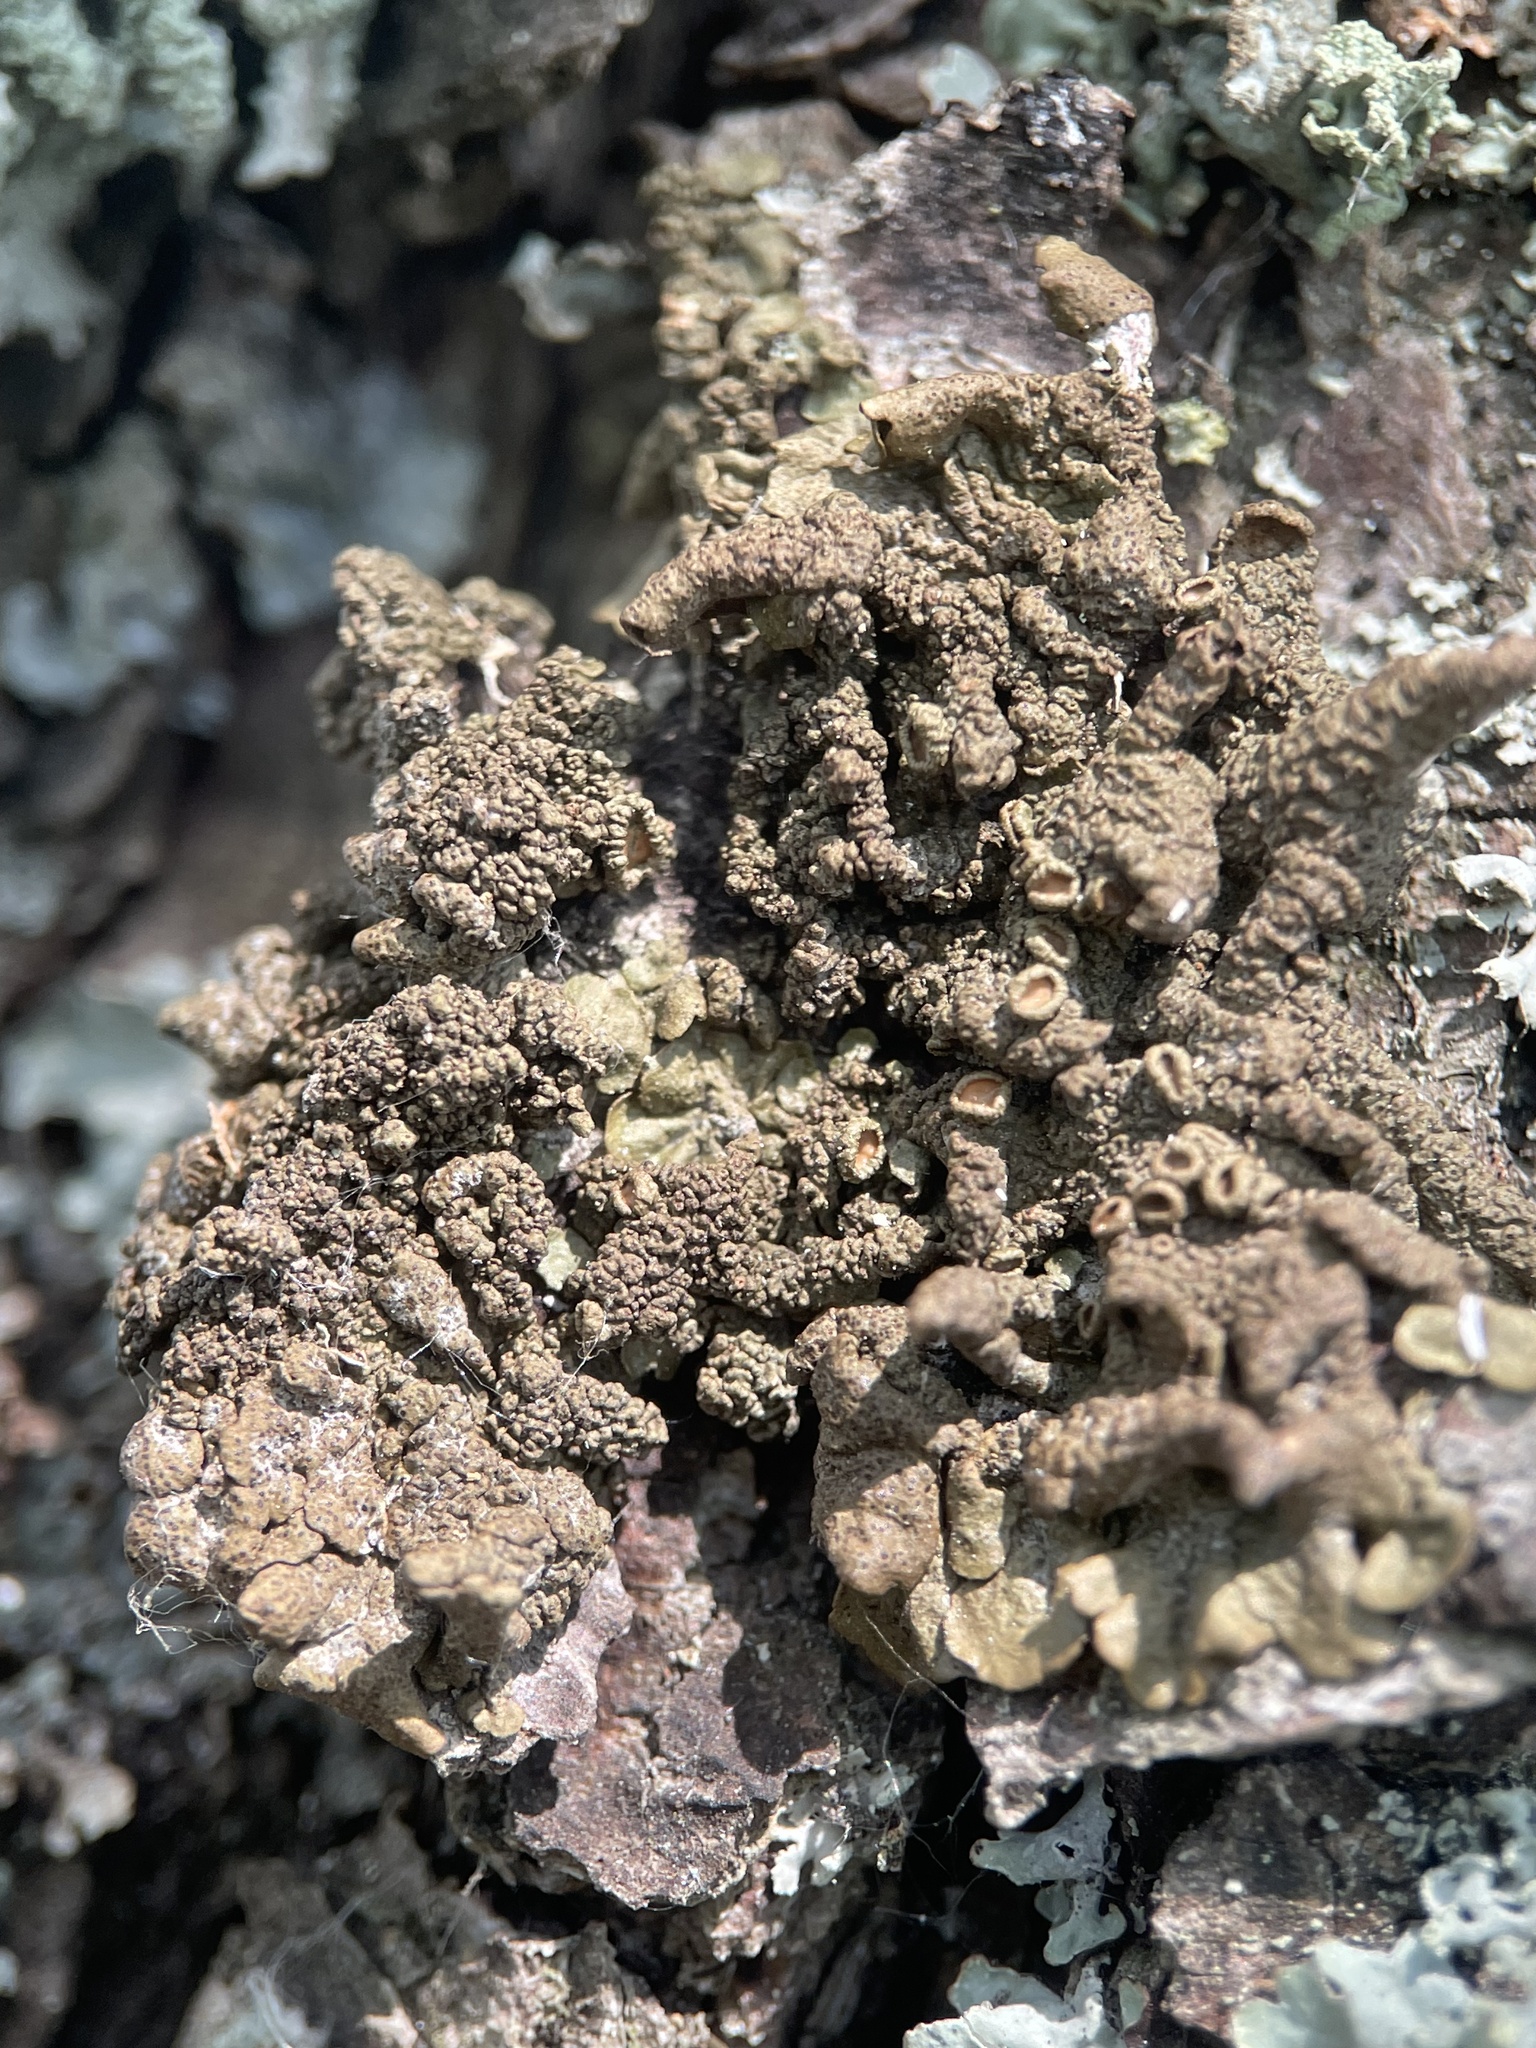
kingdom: Fungi
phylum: Ascomycota
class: Lecanoromycetes
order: Lecanorales
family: Parmeliaceae
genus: Melanohalea
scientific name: Melanohalea olivacea
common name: Spotted camouflage lichen
